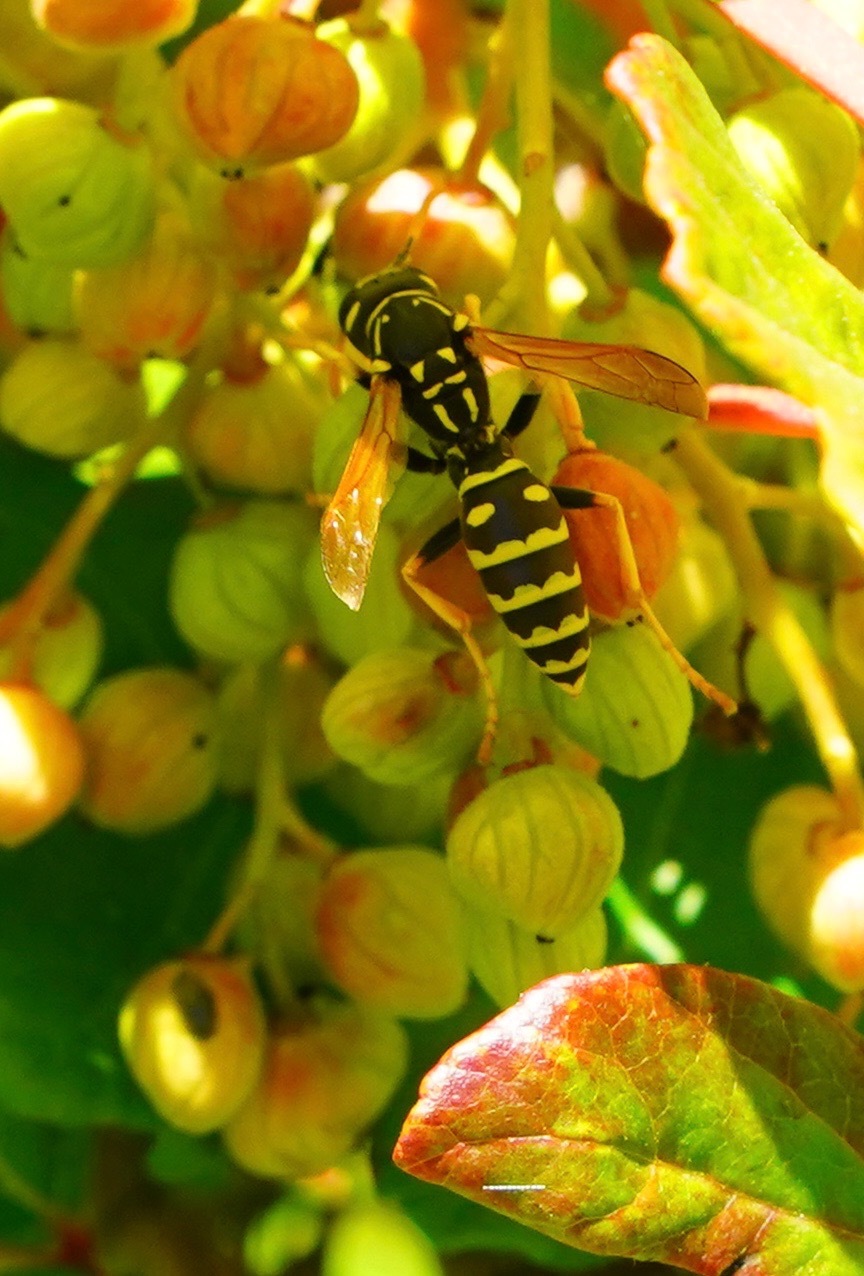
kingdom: Animalia
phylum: Arthropoda
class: Insecta
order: Hymenoptera
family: Eumenidae
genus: Polistes
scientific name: Polistes dominula
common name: Paper wasp
